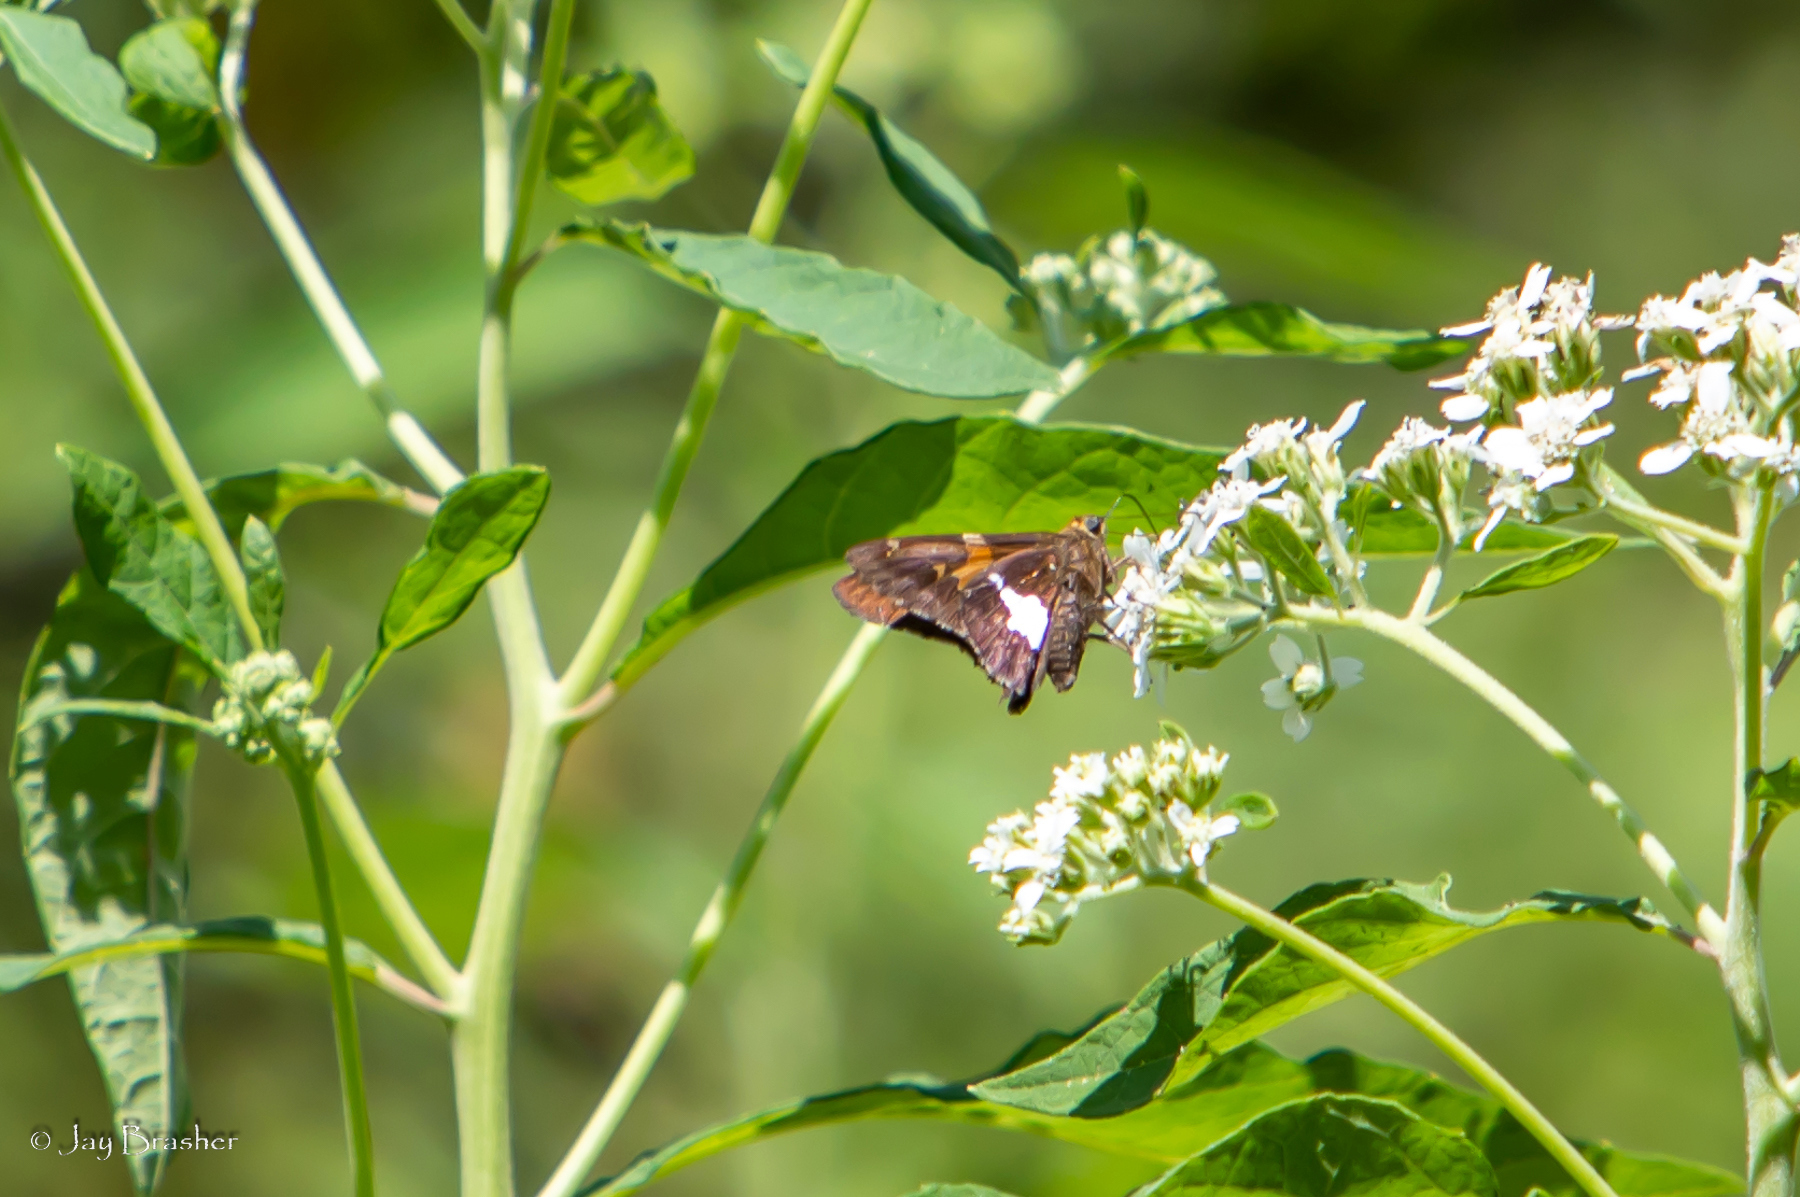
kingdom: Animalia
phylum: Arthropoda
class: Insecta
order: Lepidoptera
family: Hesperiidae
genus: Epargyreus
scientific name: Epargyreus clarus
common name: Silver-spotted skipper
